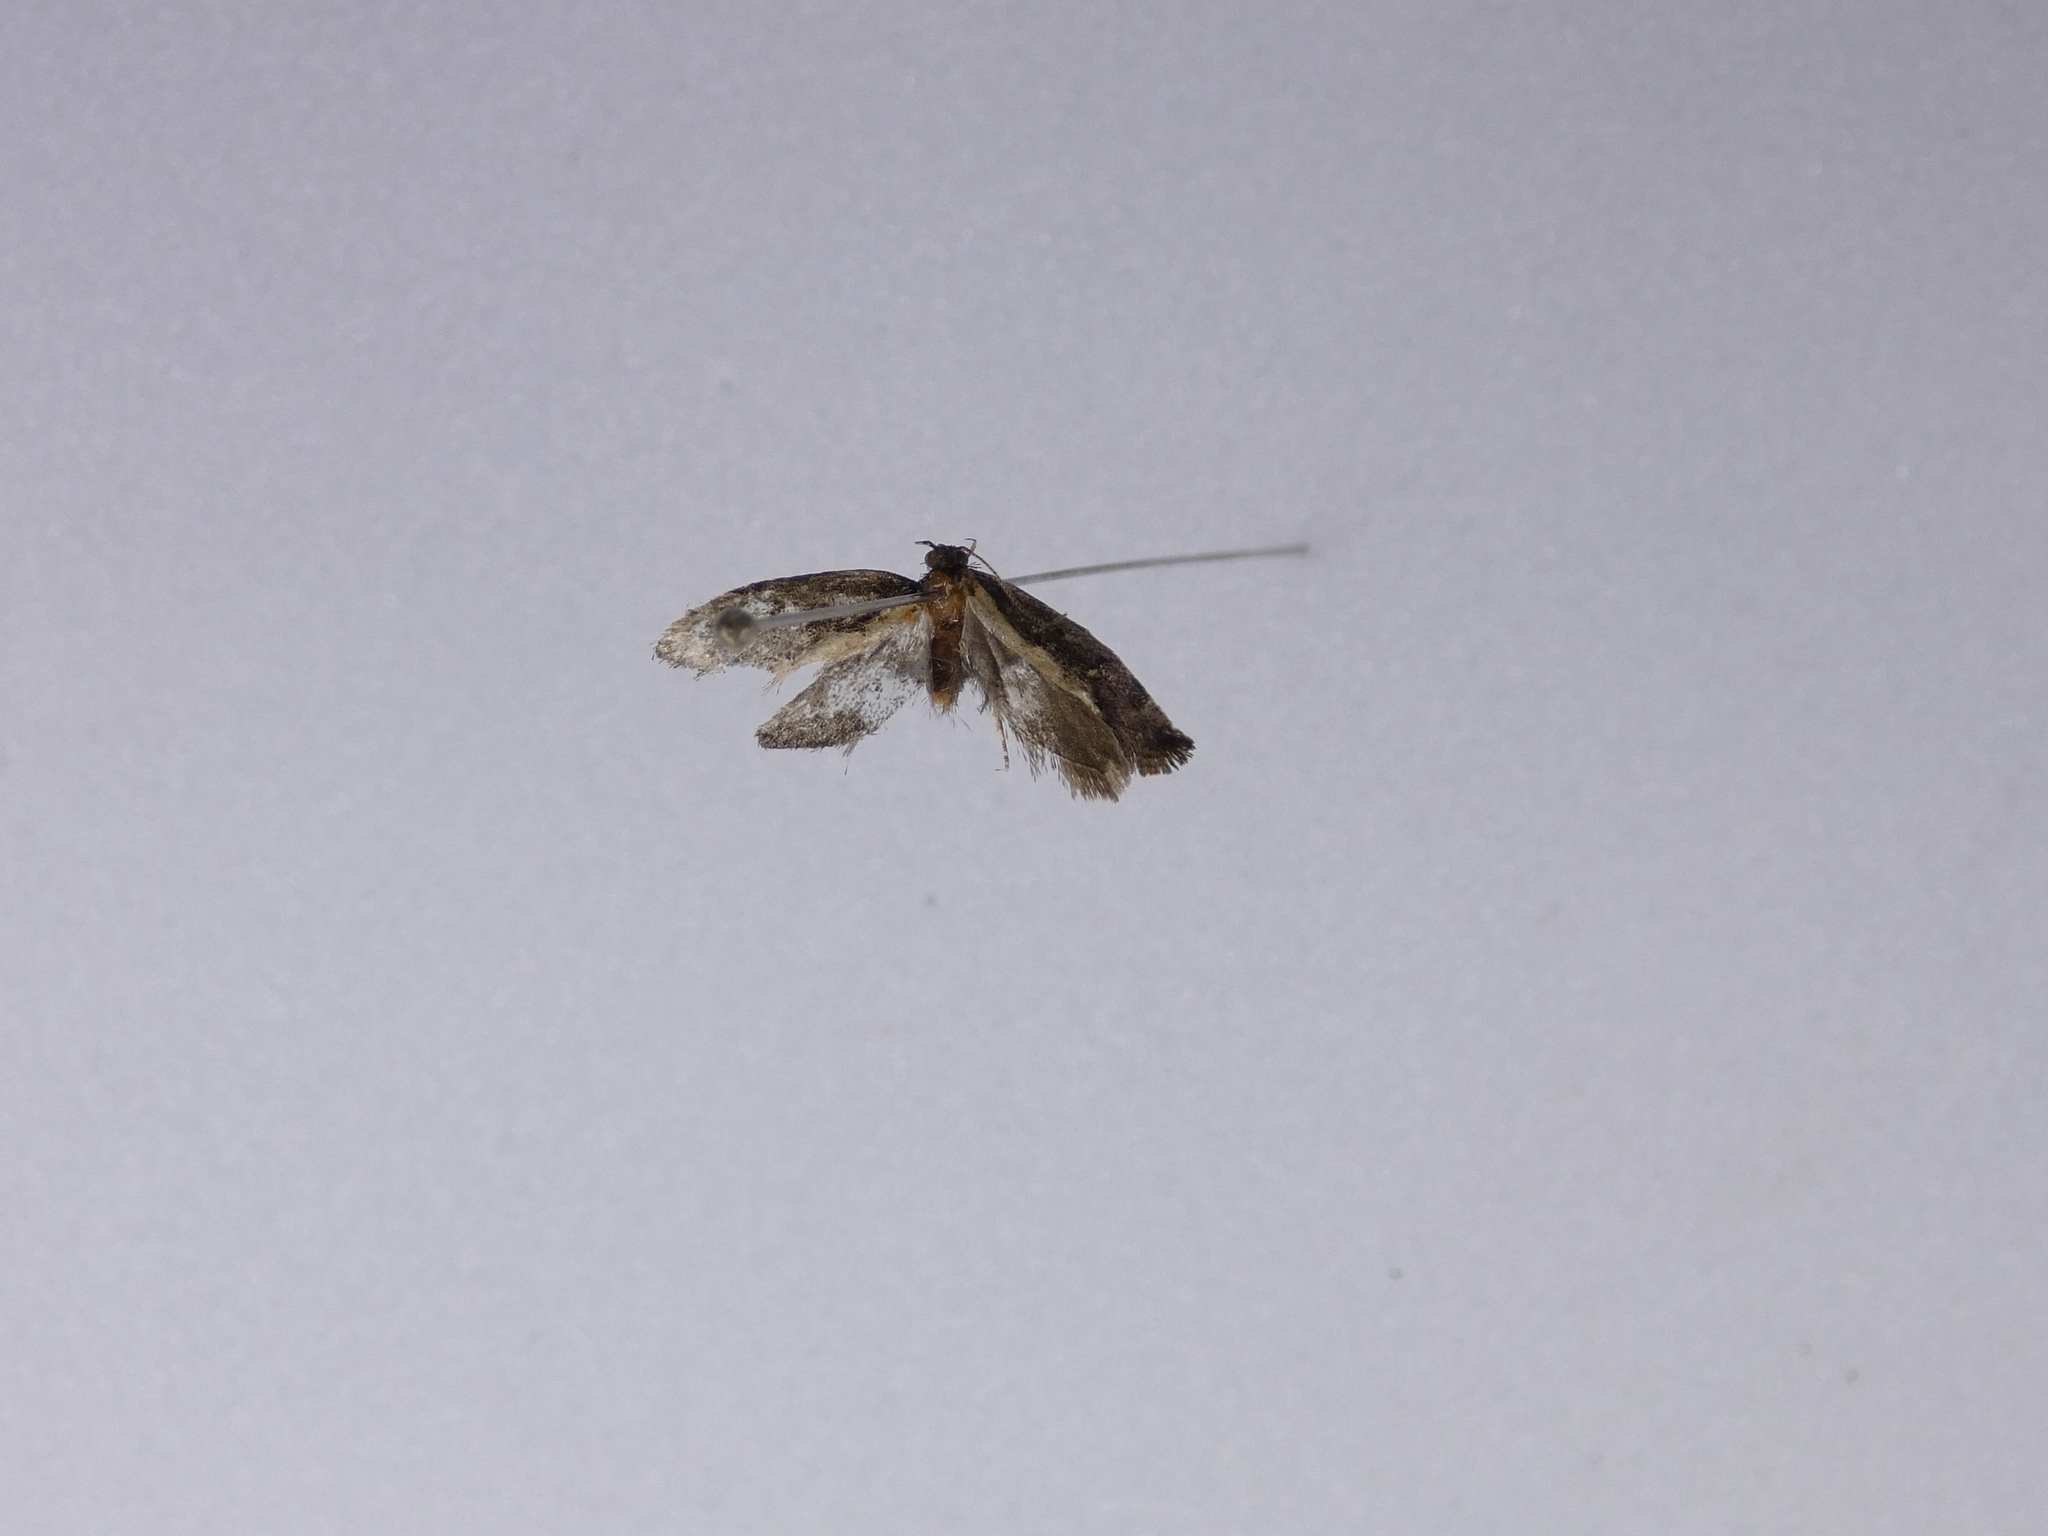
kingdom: Animalia
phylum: Arthropoda
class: Insecta
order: Lepidoptera
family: Oecophoridae
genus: Tingena
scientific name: Tingena basella
